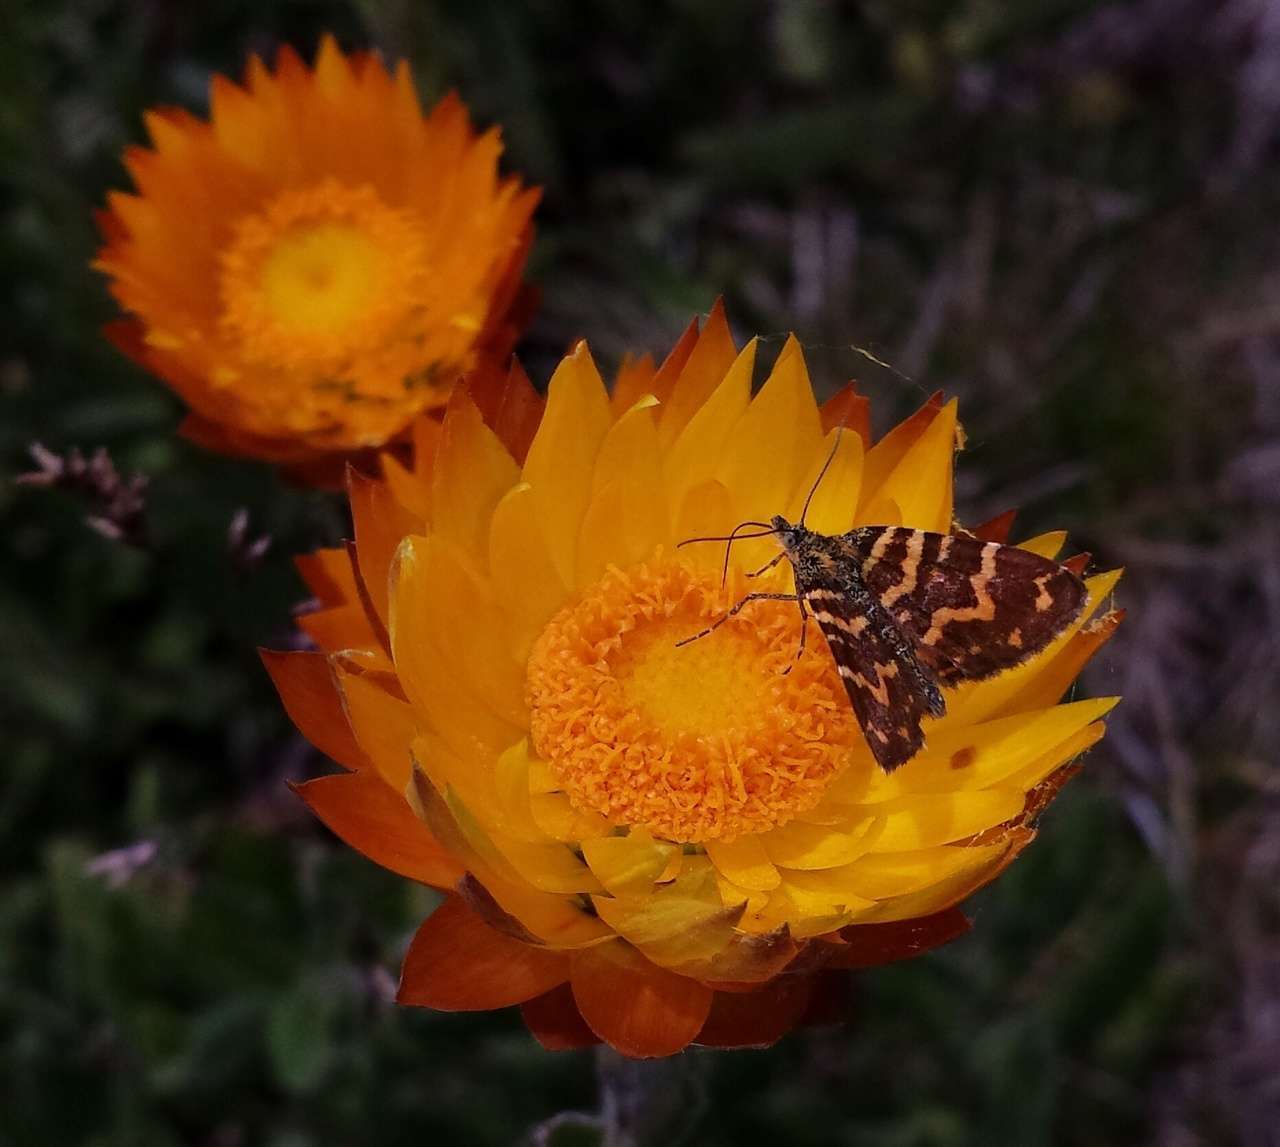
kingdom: Animalia
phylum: Arthropoda
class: Insecta
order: Lepidoptera
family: Geometridae
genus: Chrysolarentia
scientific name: Chrysolarentia chrysocyma
